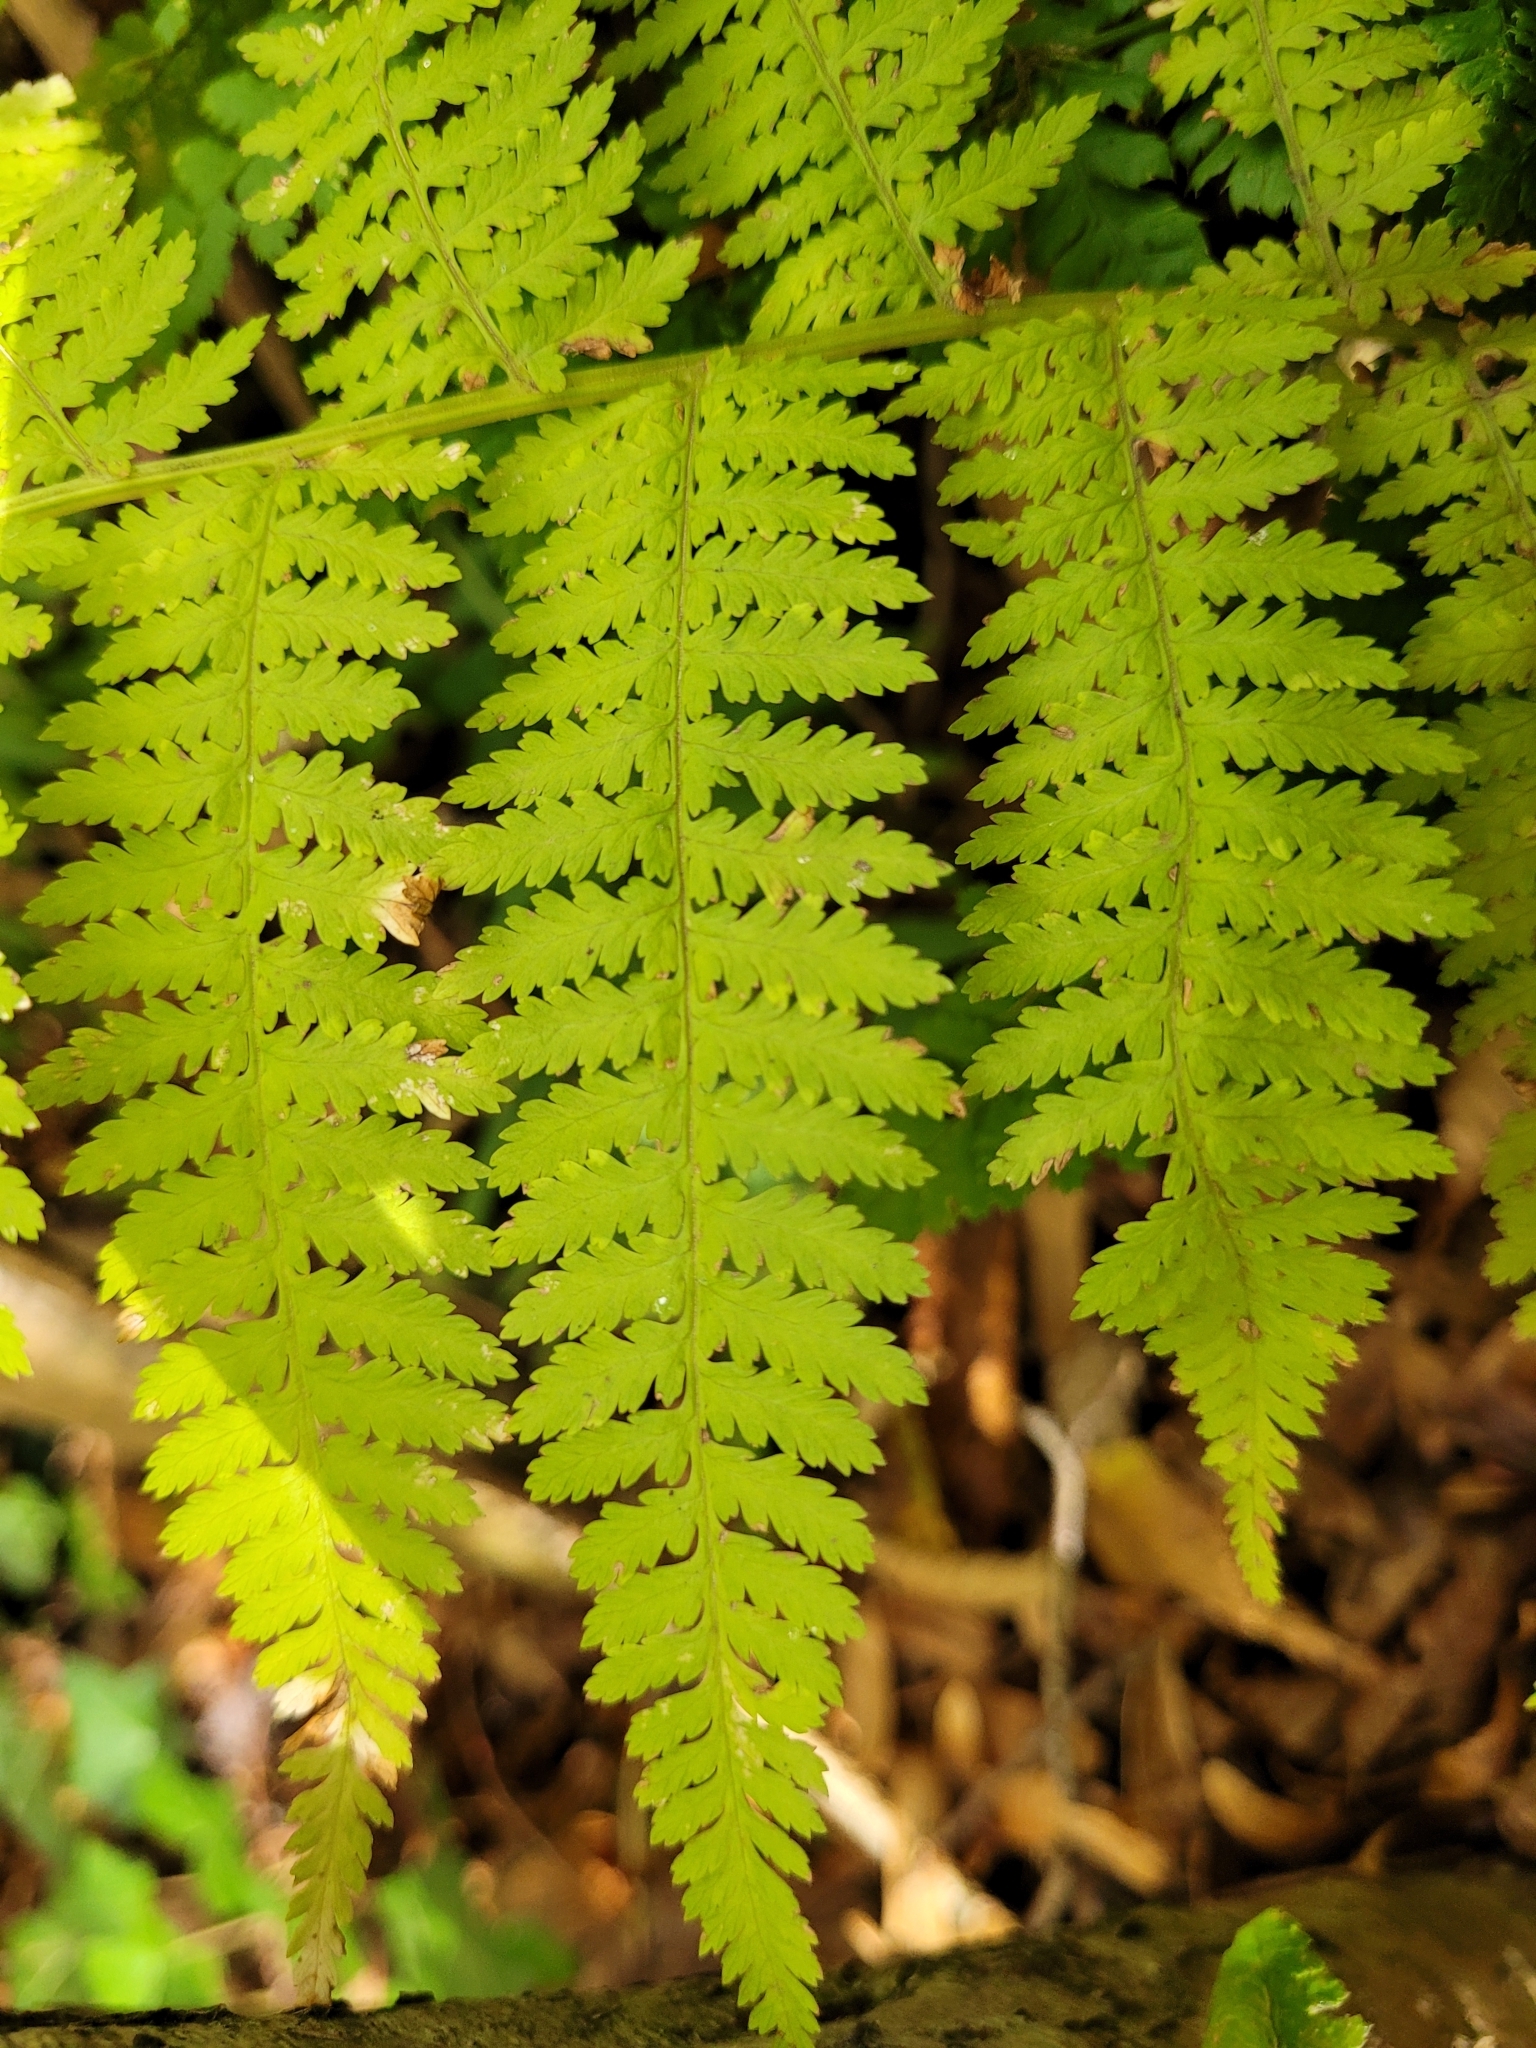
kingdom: Plantae
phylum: Tracheophyta
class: Polypodiopsida
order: Polypodiales
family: Athyriaceae
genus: Athyrium
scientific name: Athyrium filix-femina
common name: Lady fern
